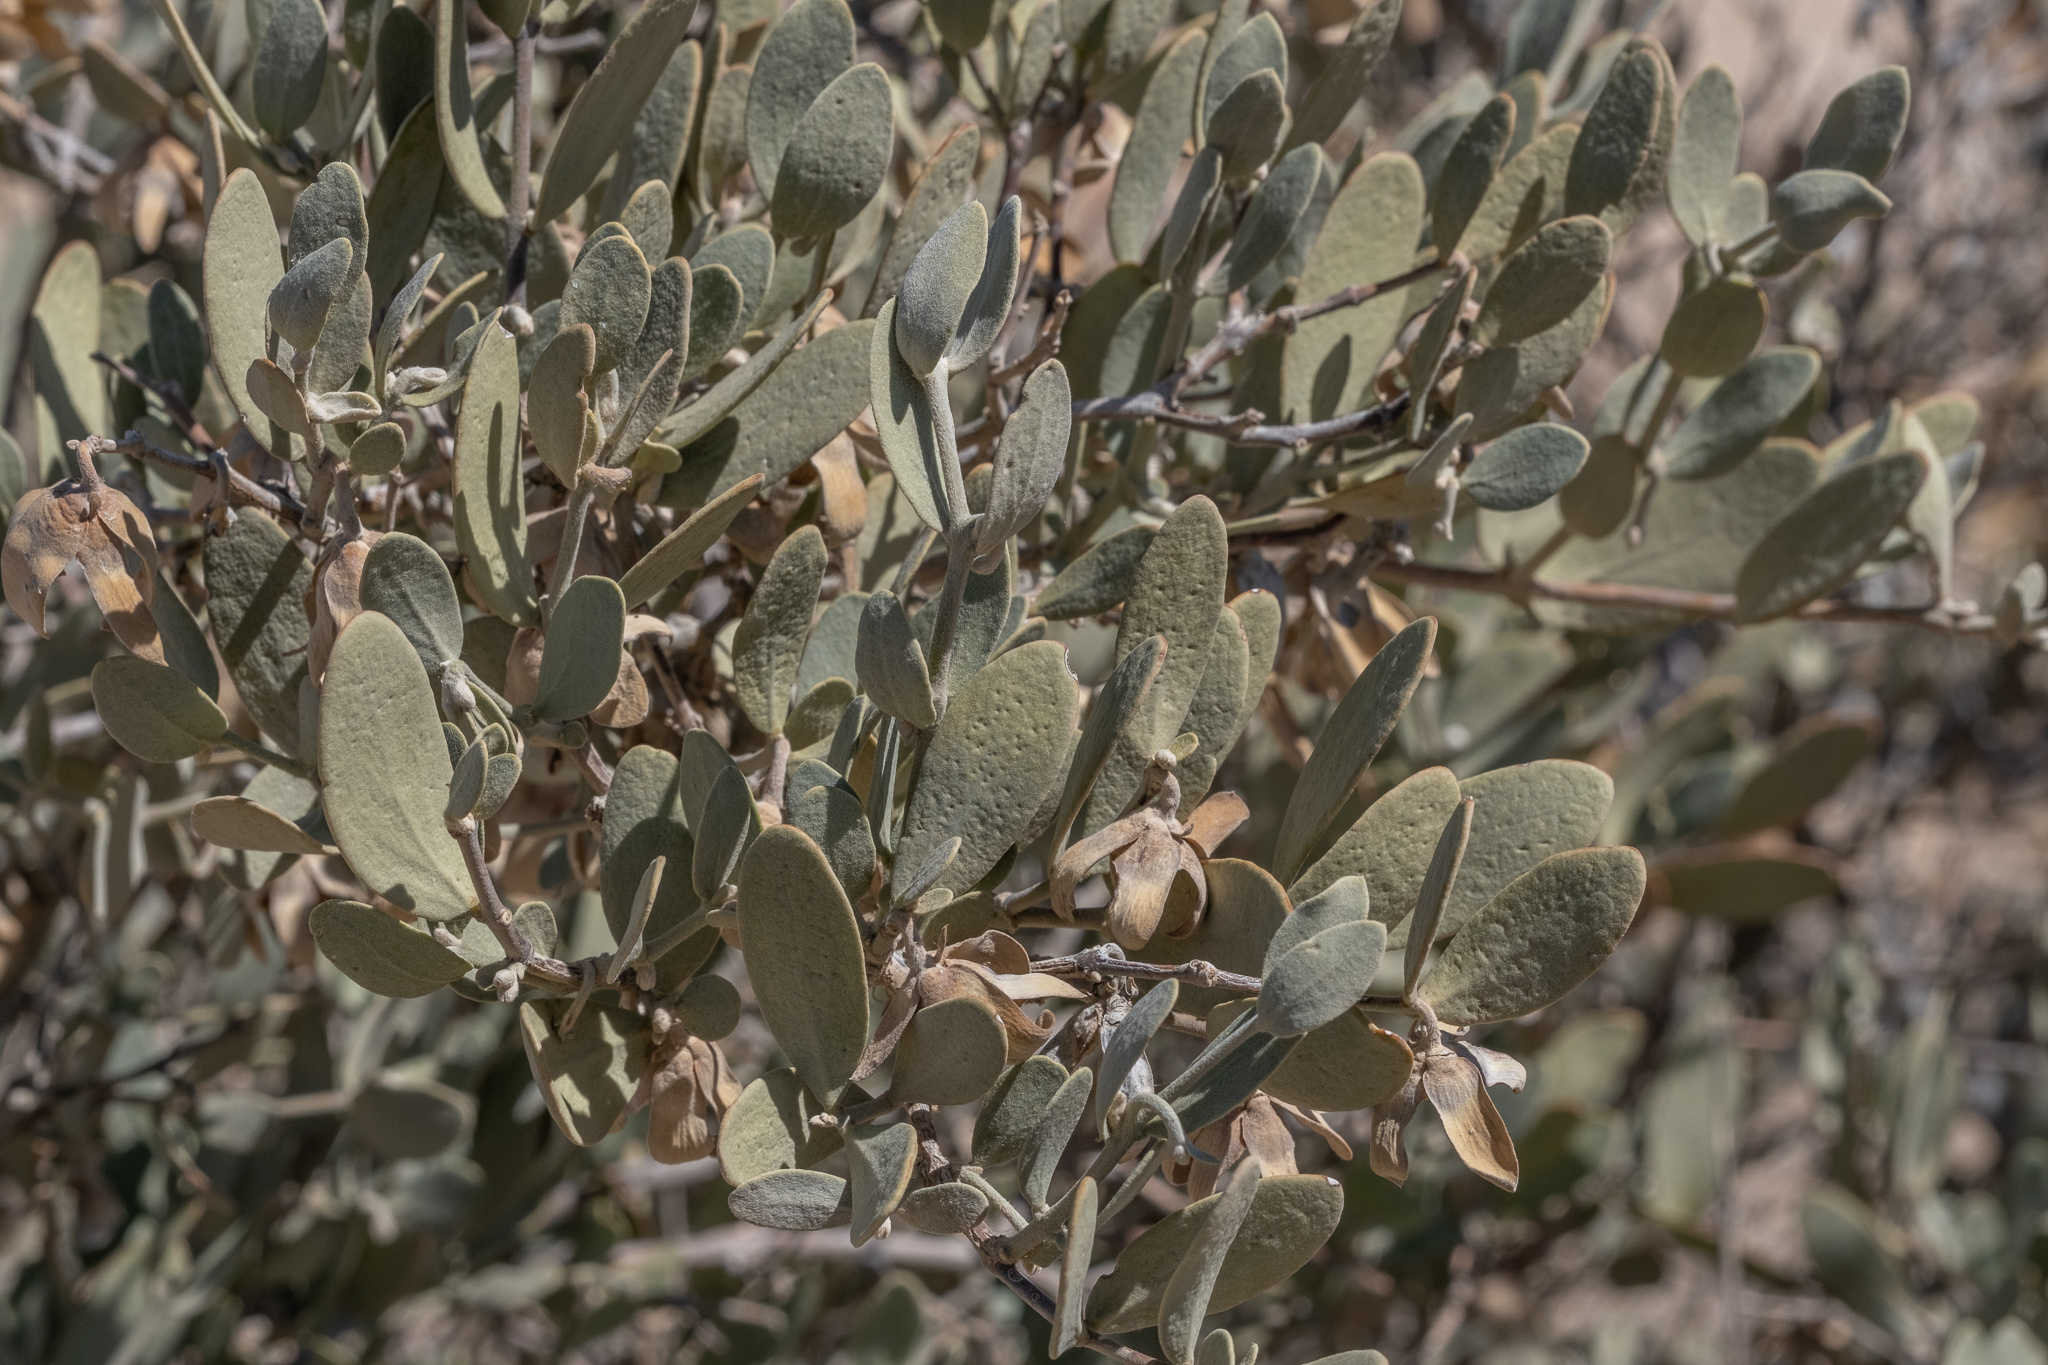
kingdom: Plantae
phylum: Tracheophyta
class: Magnoliopsida
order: Caryophyllales
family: Simmondsiaceae
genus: Simmondsia
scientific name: Simmondsia chinensis
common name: Jojoba
